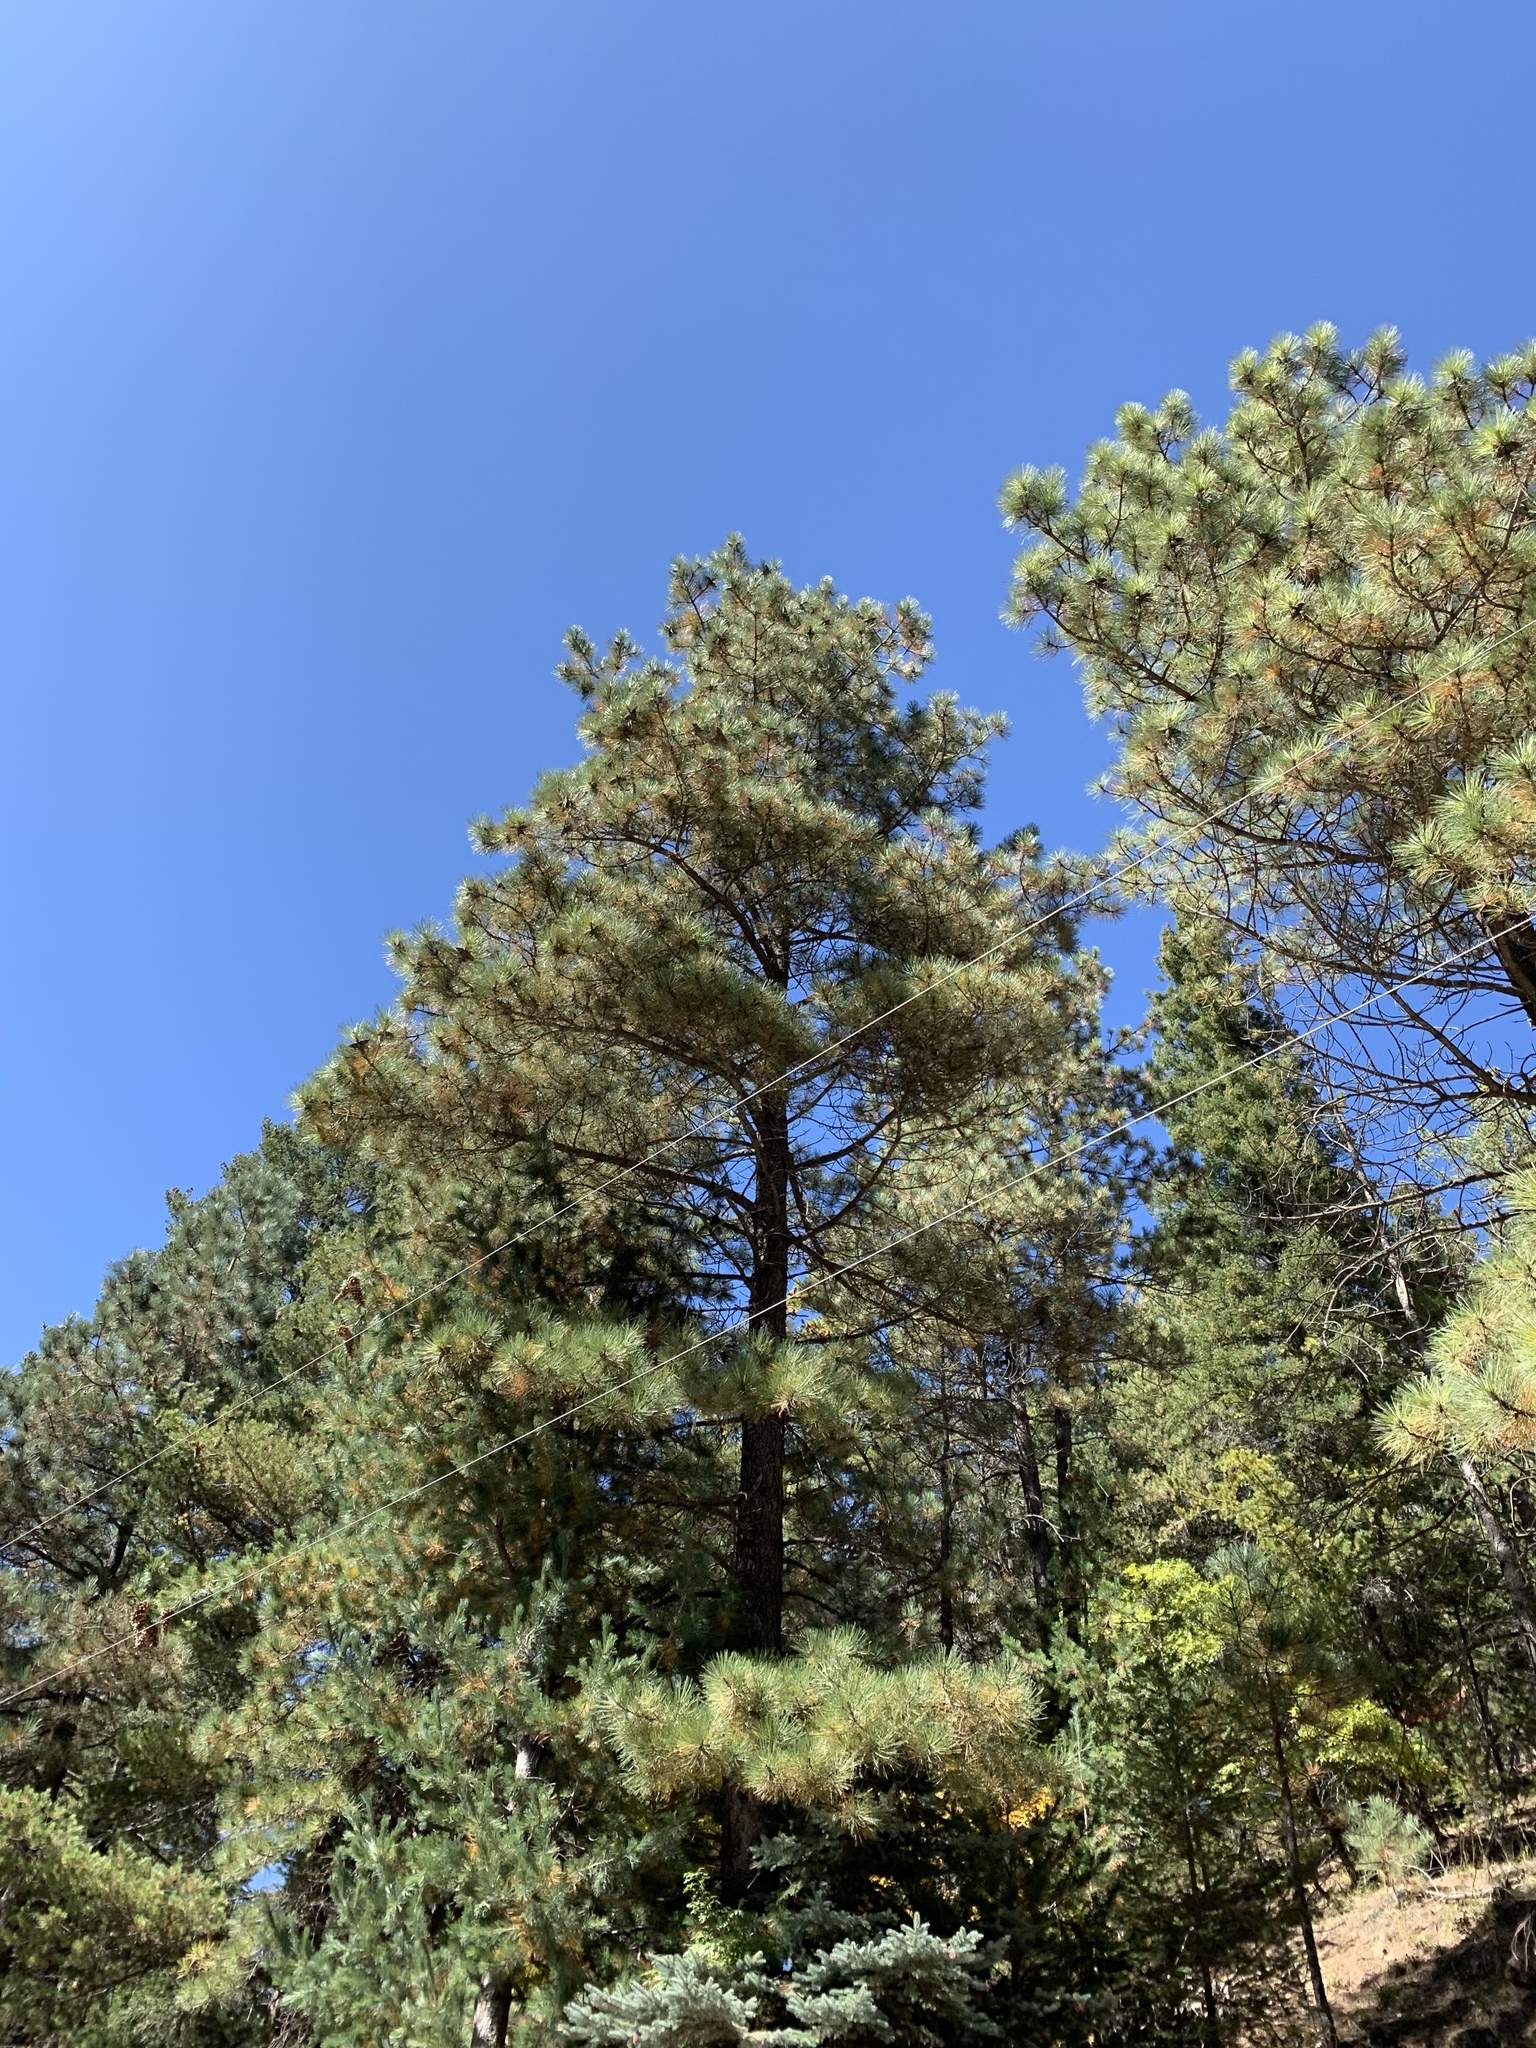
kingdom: Plantae
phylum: Tracheophyta
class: Pinopsida
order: Pinales
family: Pinaceae
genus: Pinus
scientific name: Pinus ponderosa
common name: Western yellow-pine
